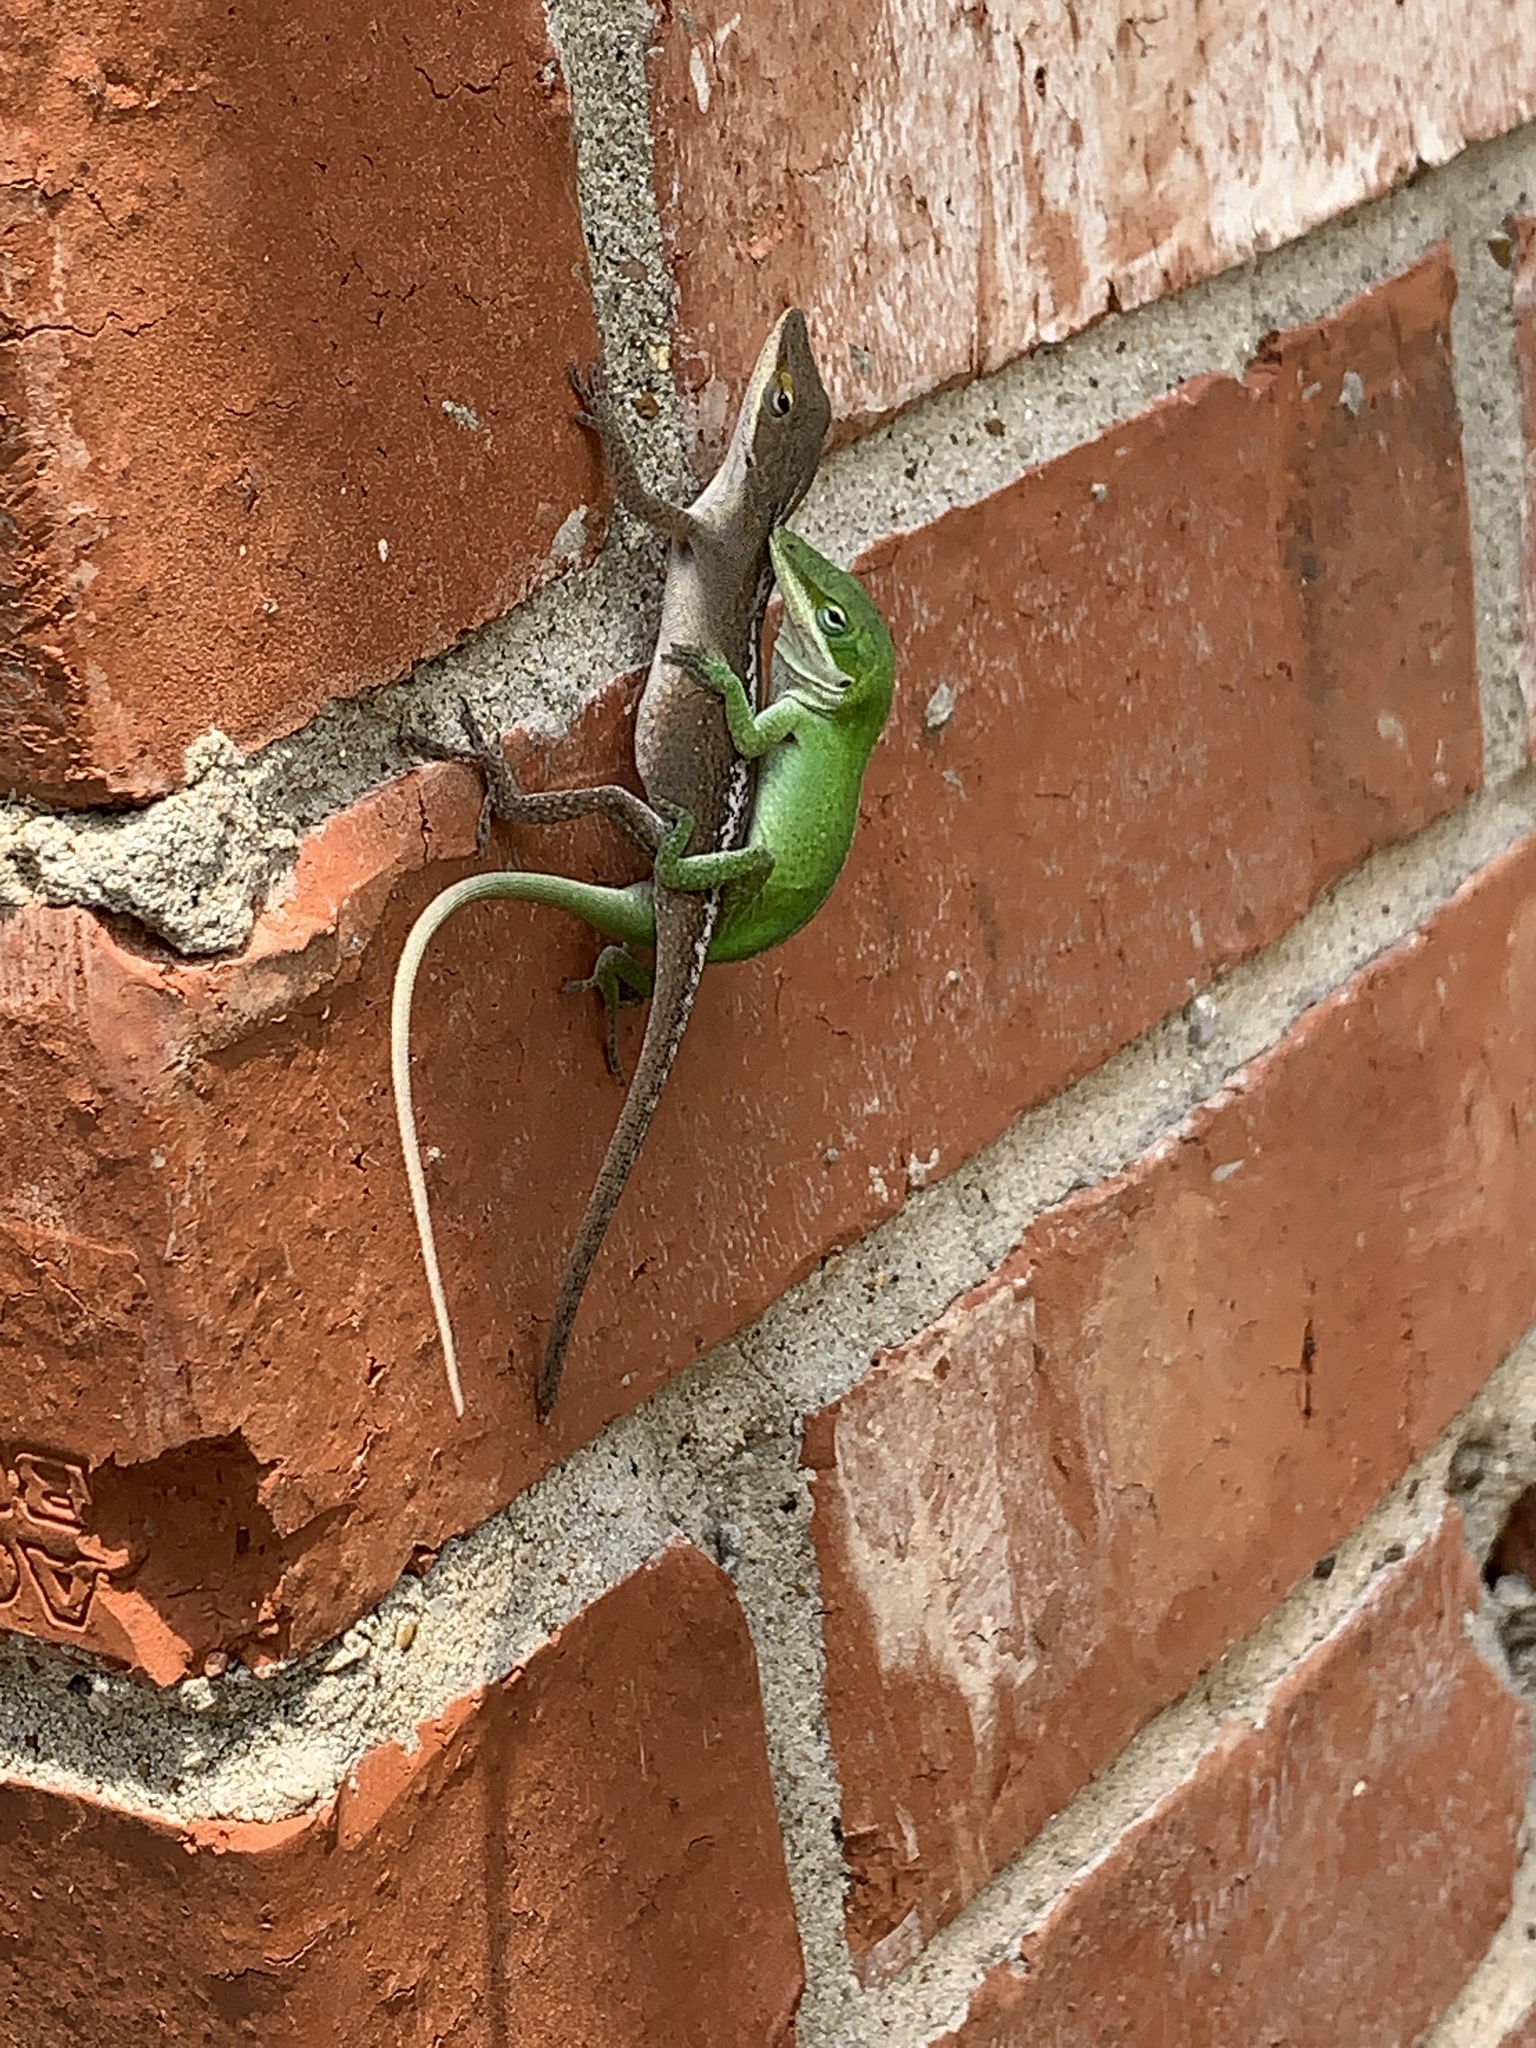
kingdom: Animalia
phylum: Chordata
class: Squamata
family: Dactyloidae
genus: Anolis
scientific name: Anolis carolinensis
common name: Green anole
